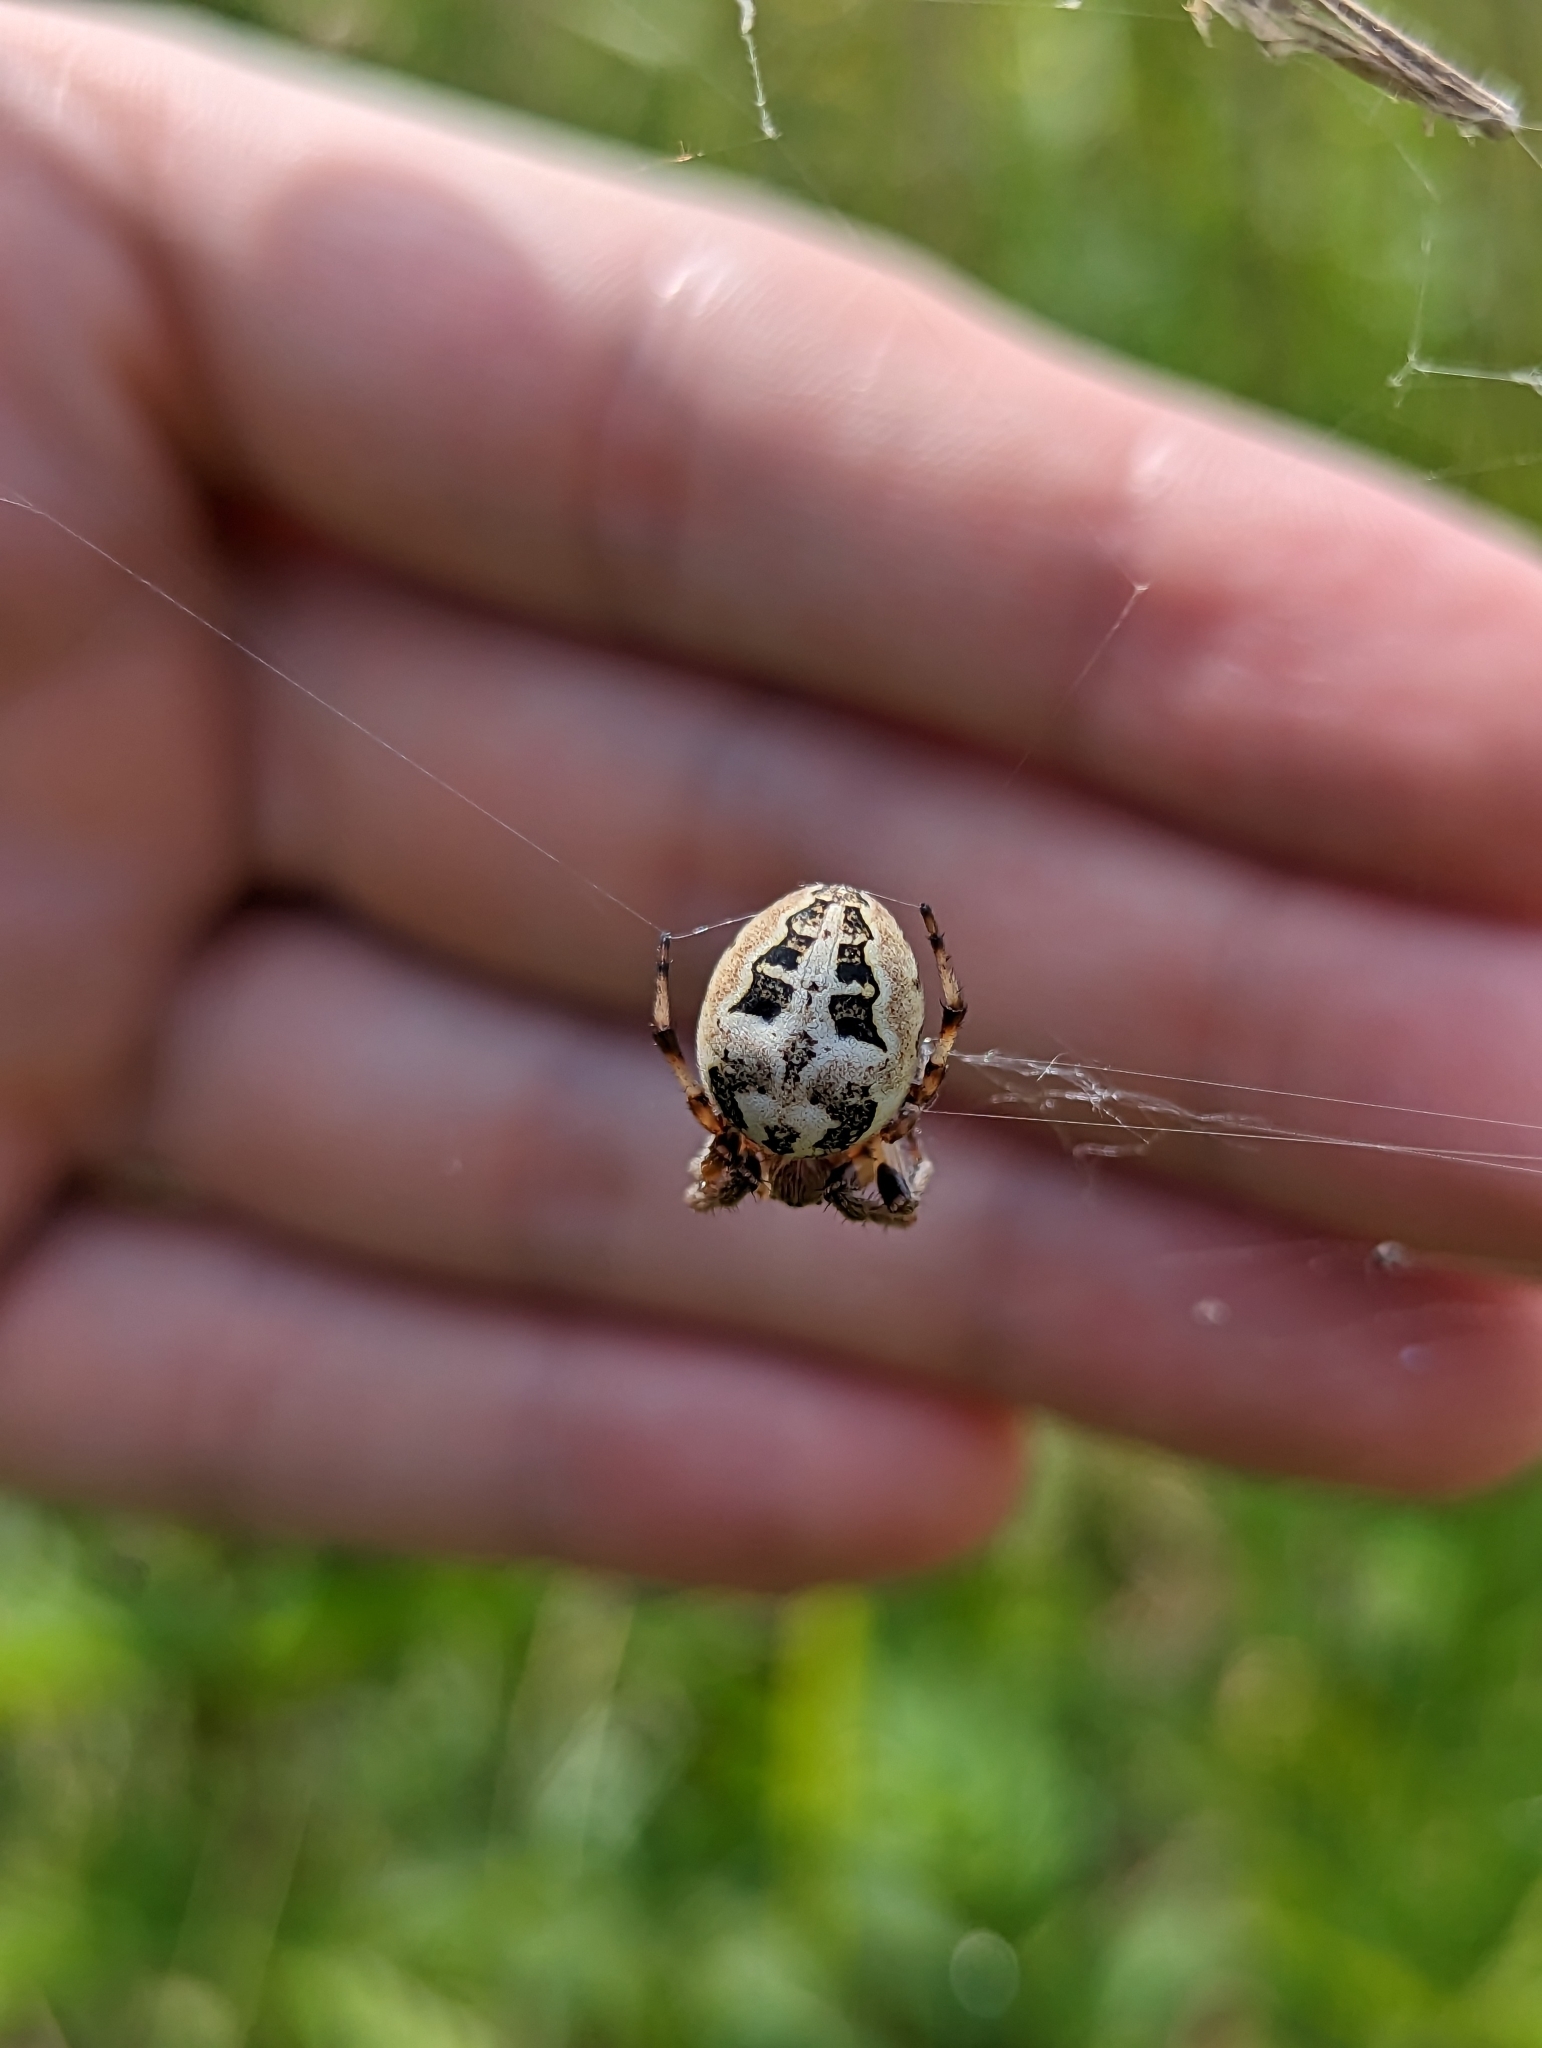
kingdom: Animalia
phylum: Arthropoda
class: Arachnida
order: Araneae
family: Araneidae
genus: Larinioides
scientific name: Larinioides cornutus
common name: Furrow orbweaver
